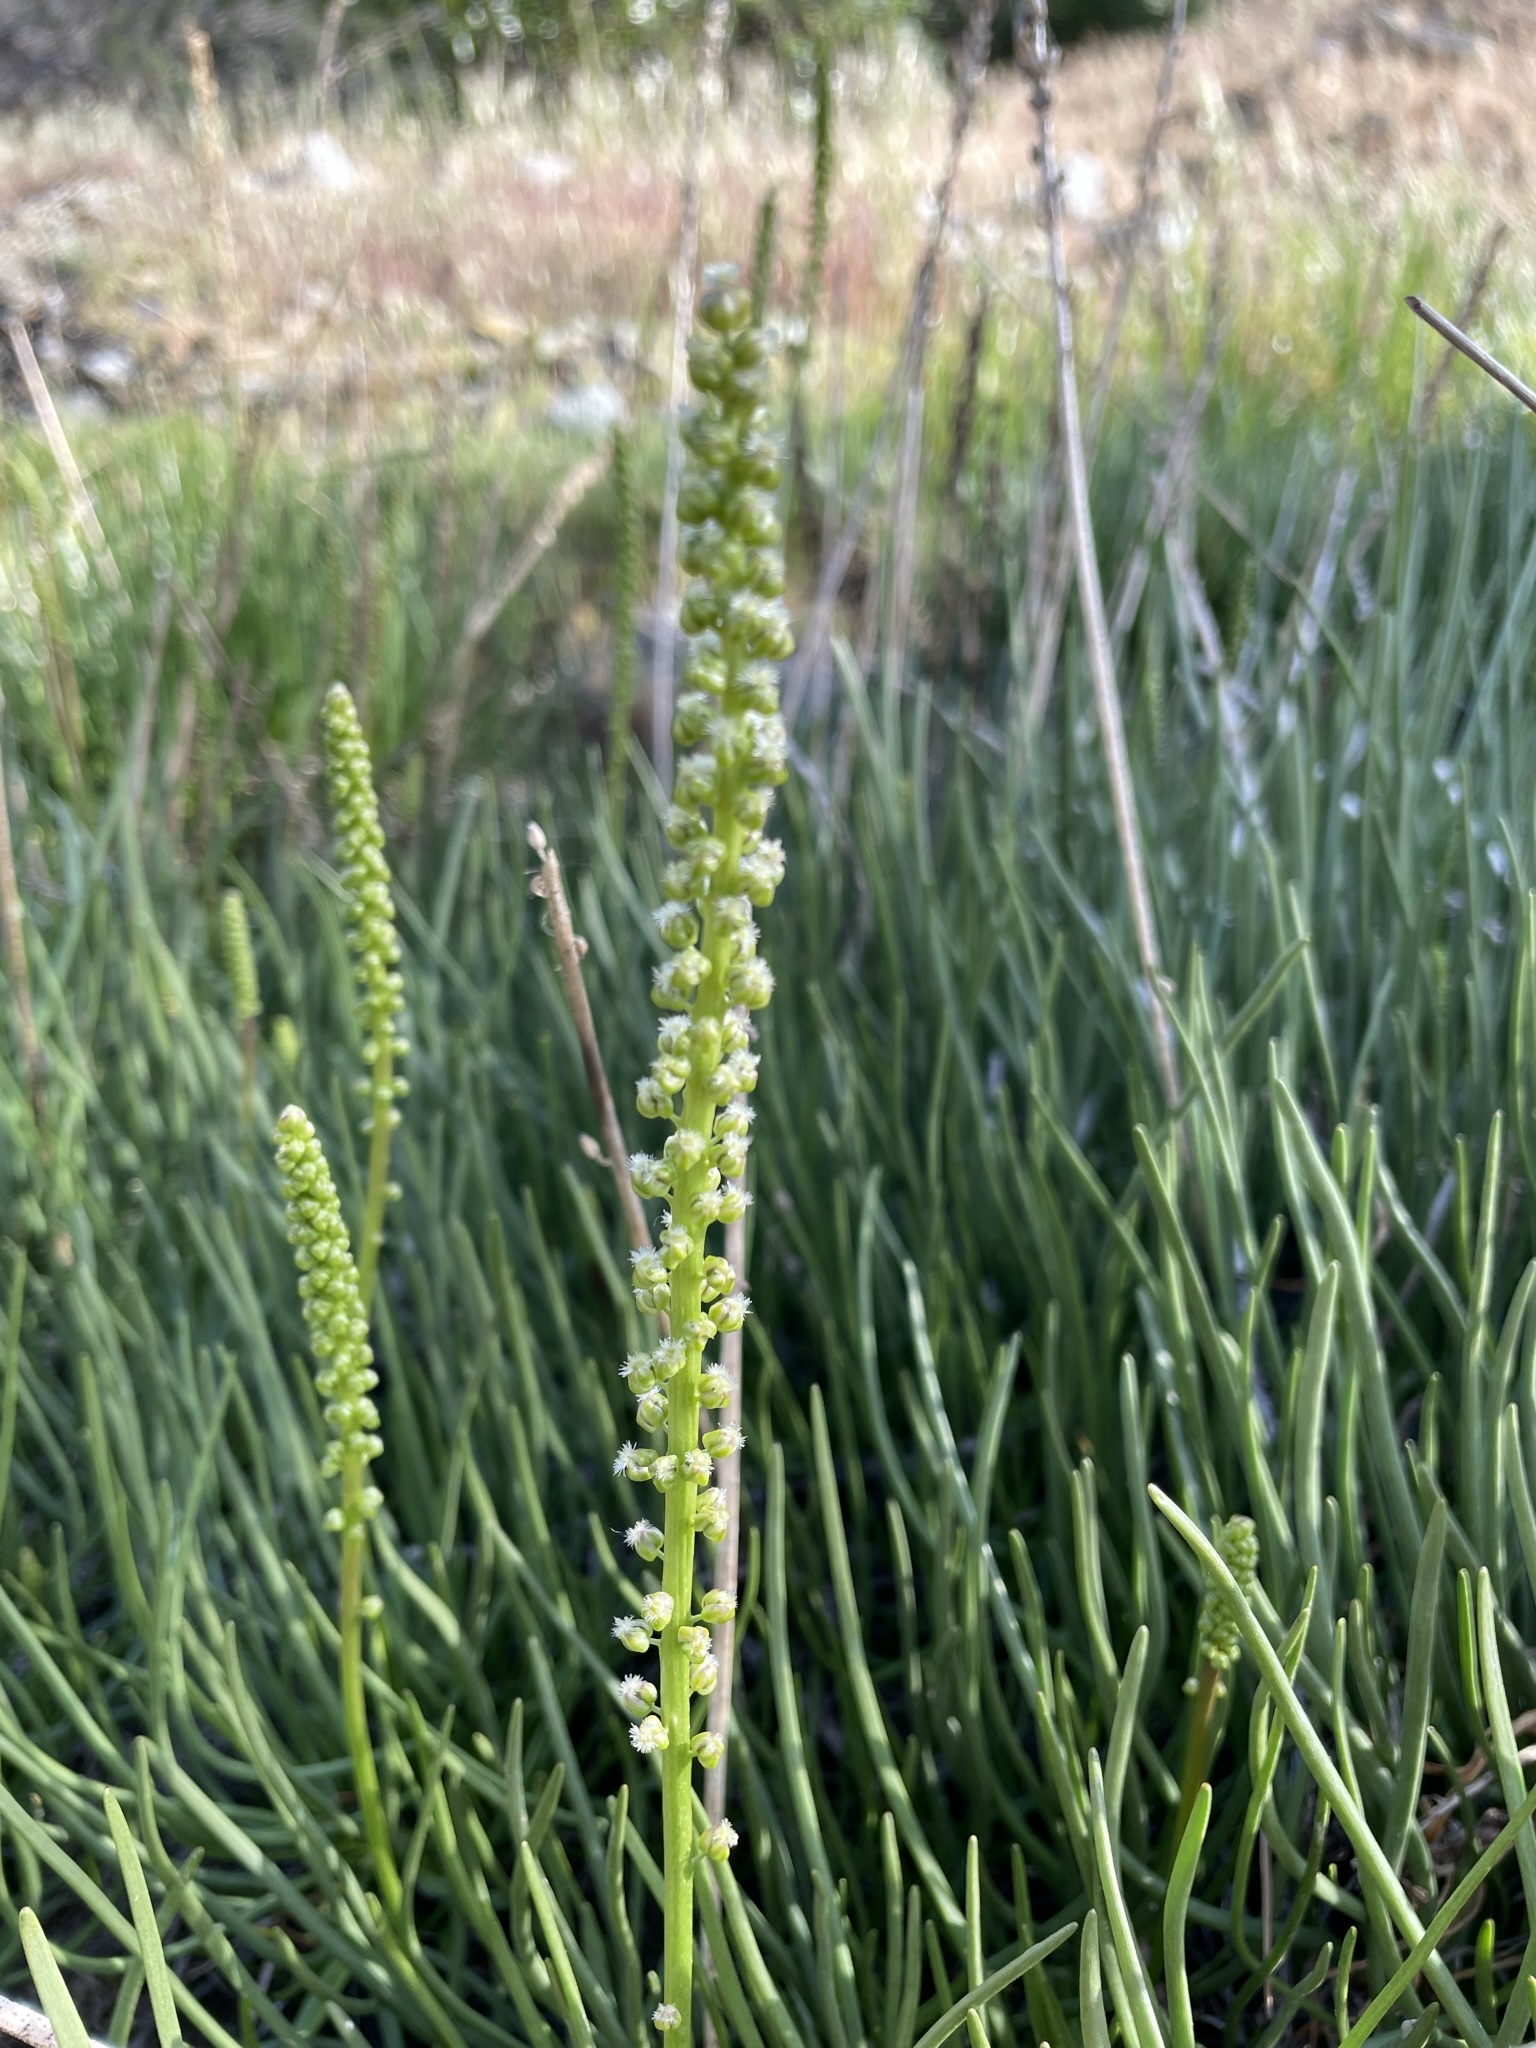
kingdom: Plantae
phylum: Tracheophyta
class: Liliopsida
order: Alismatales
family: Juncaginaceae
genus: Triglochin
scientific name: Triglochin maritima
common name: Sea arrowgrass
